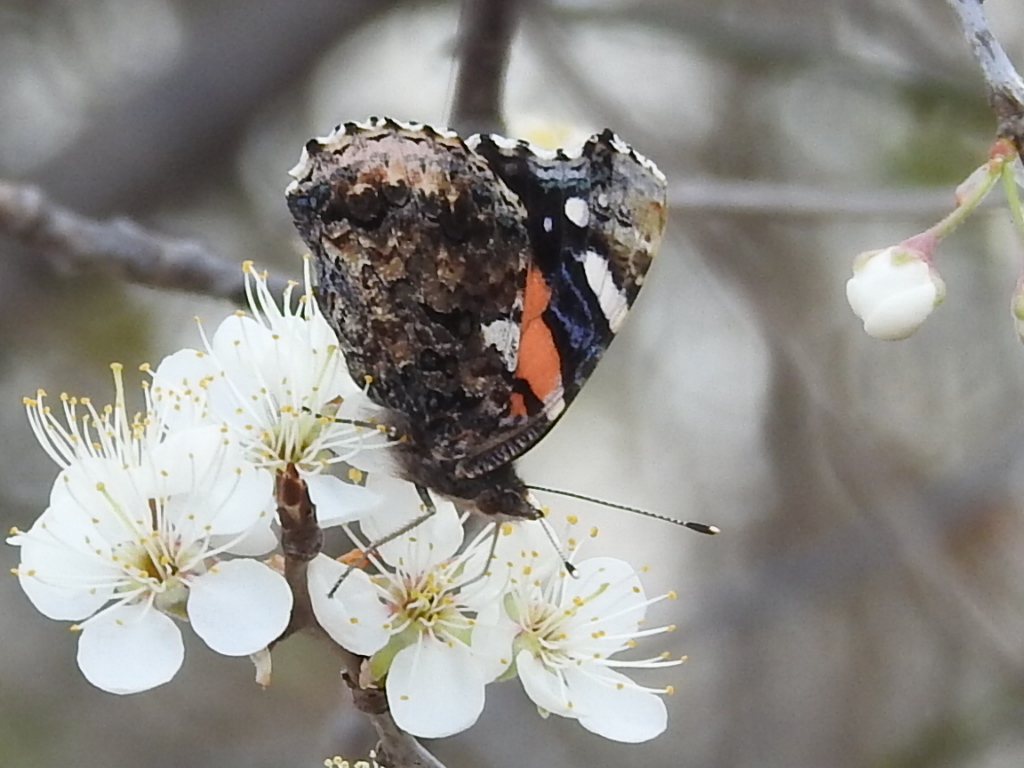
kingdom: Animalia
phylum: Arthropoda
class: Insecta
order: Lepidoptera
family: Nymphalidae
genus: Vanessa
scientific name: Vanessa atalanta
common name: Red admiral
